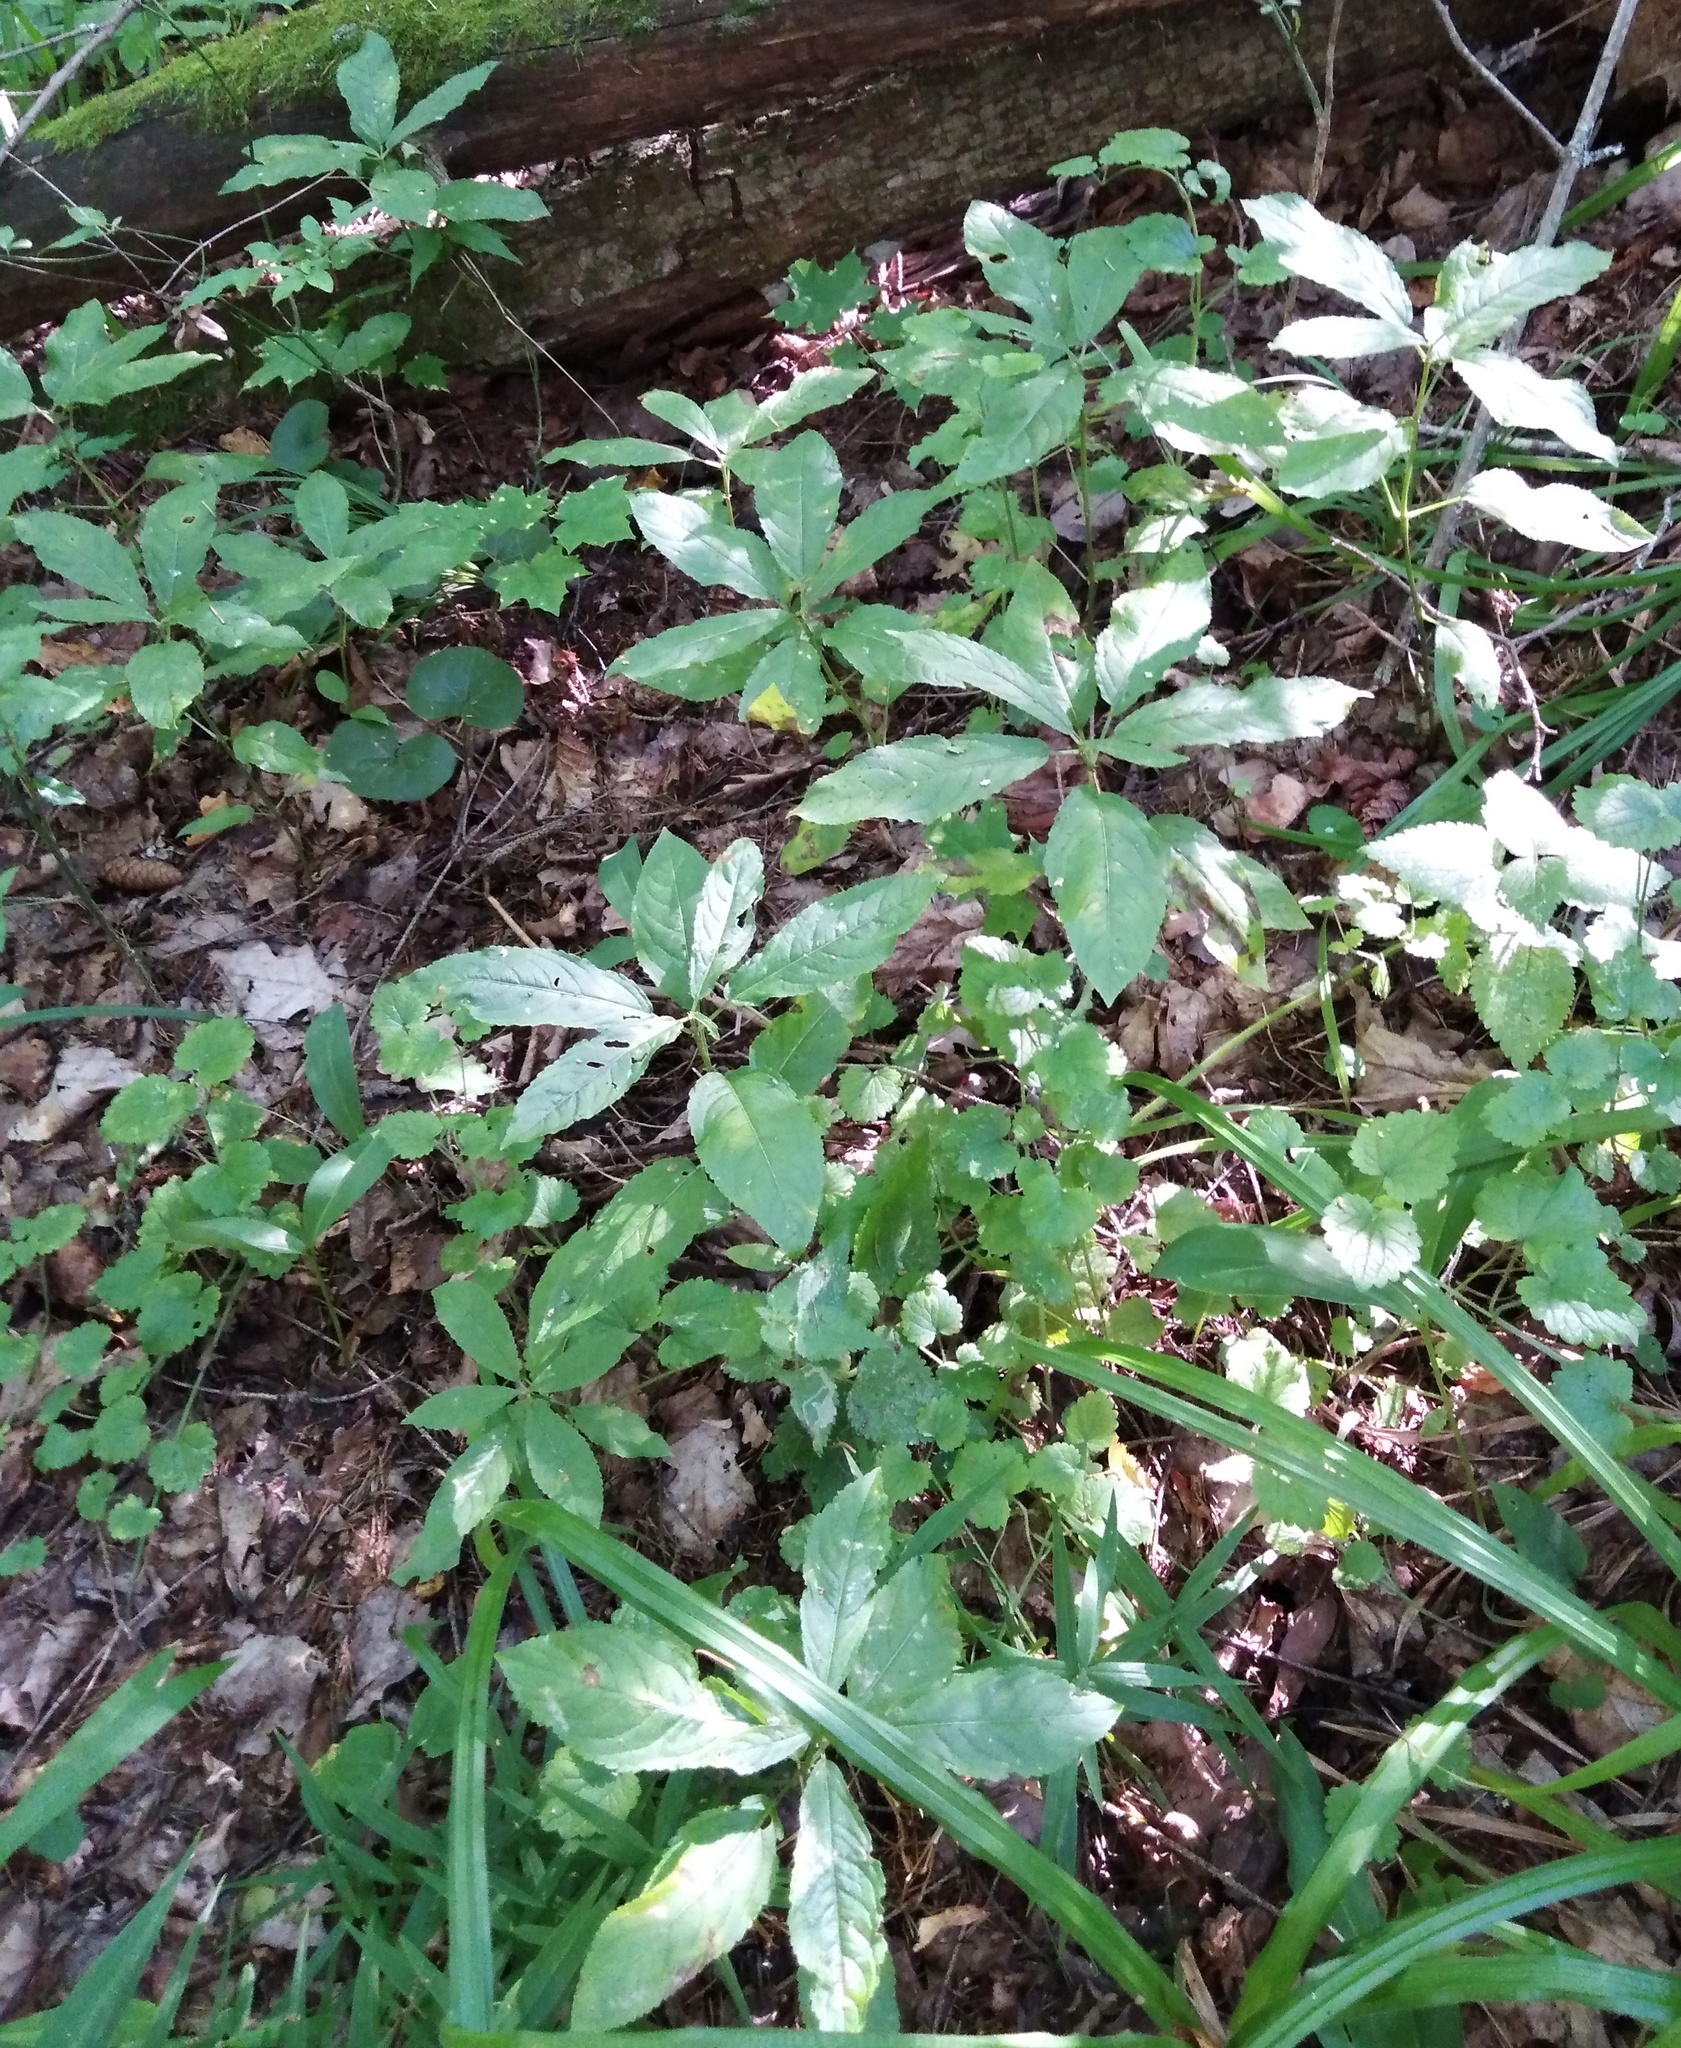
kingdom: Plantae
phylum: Tracheophyta
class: Magnoliopsida
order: Malpighiales
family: Euphorbiaceae
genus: Mercurialis
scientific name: Mercurialis perennis
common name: Dog mercury
